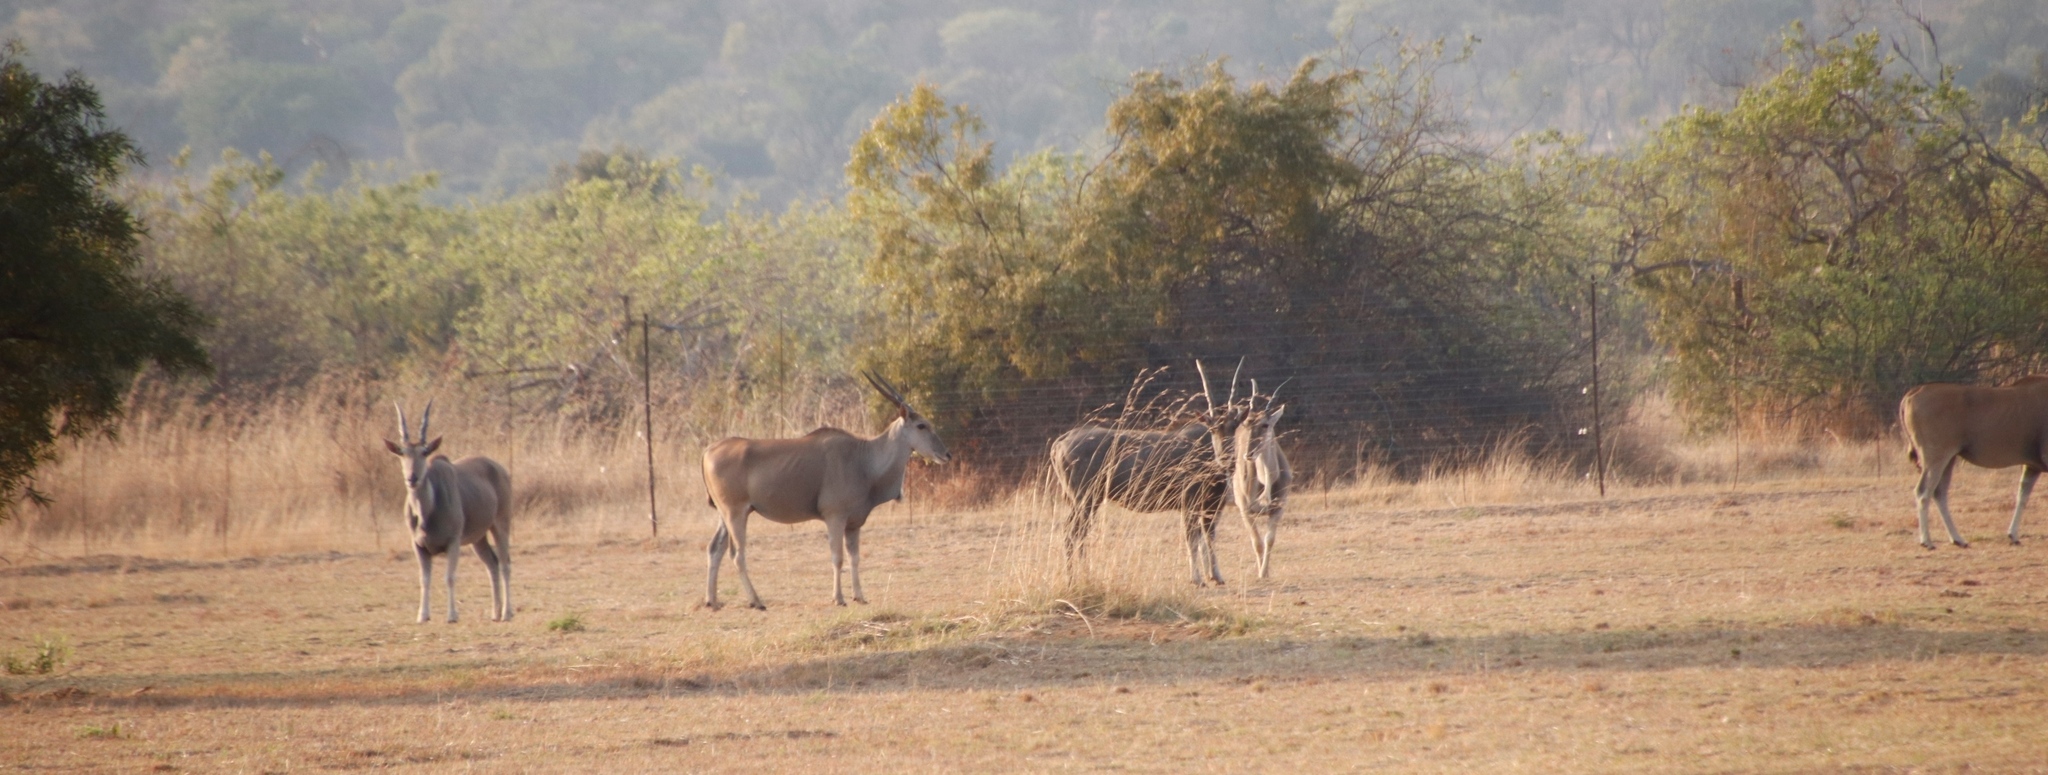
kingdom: Animalia
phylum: Chordata
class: Mammalia
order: Artiodactyla
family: Bovidae
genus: Taurotragus
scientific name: Taurotragus oryx
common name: Common eland
